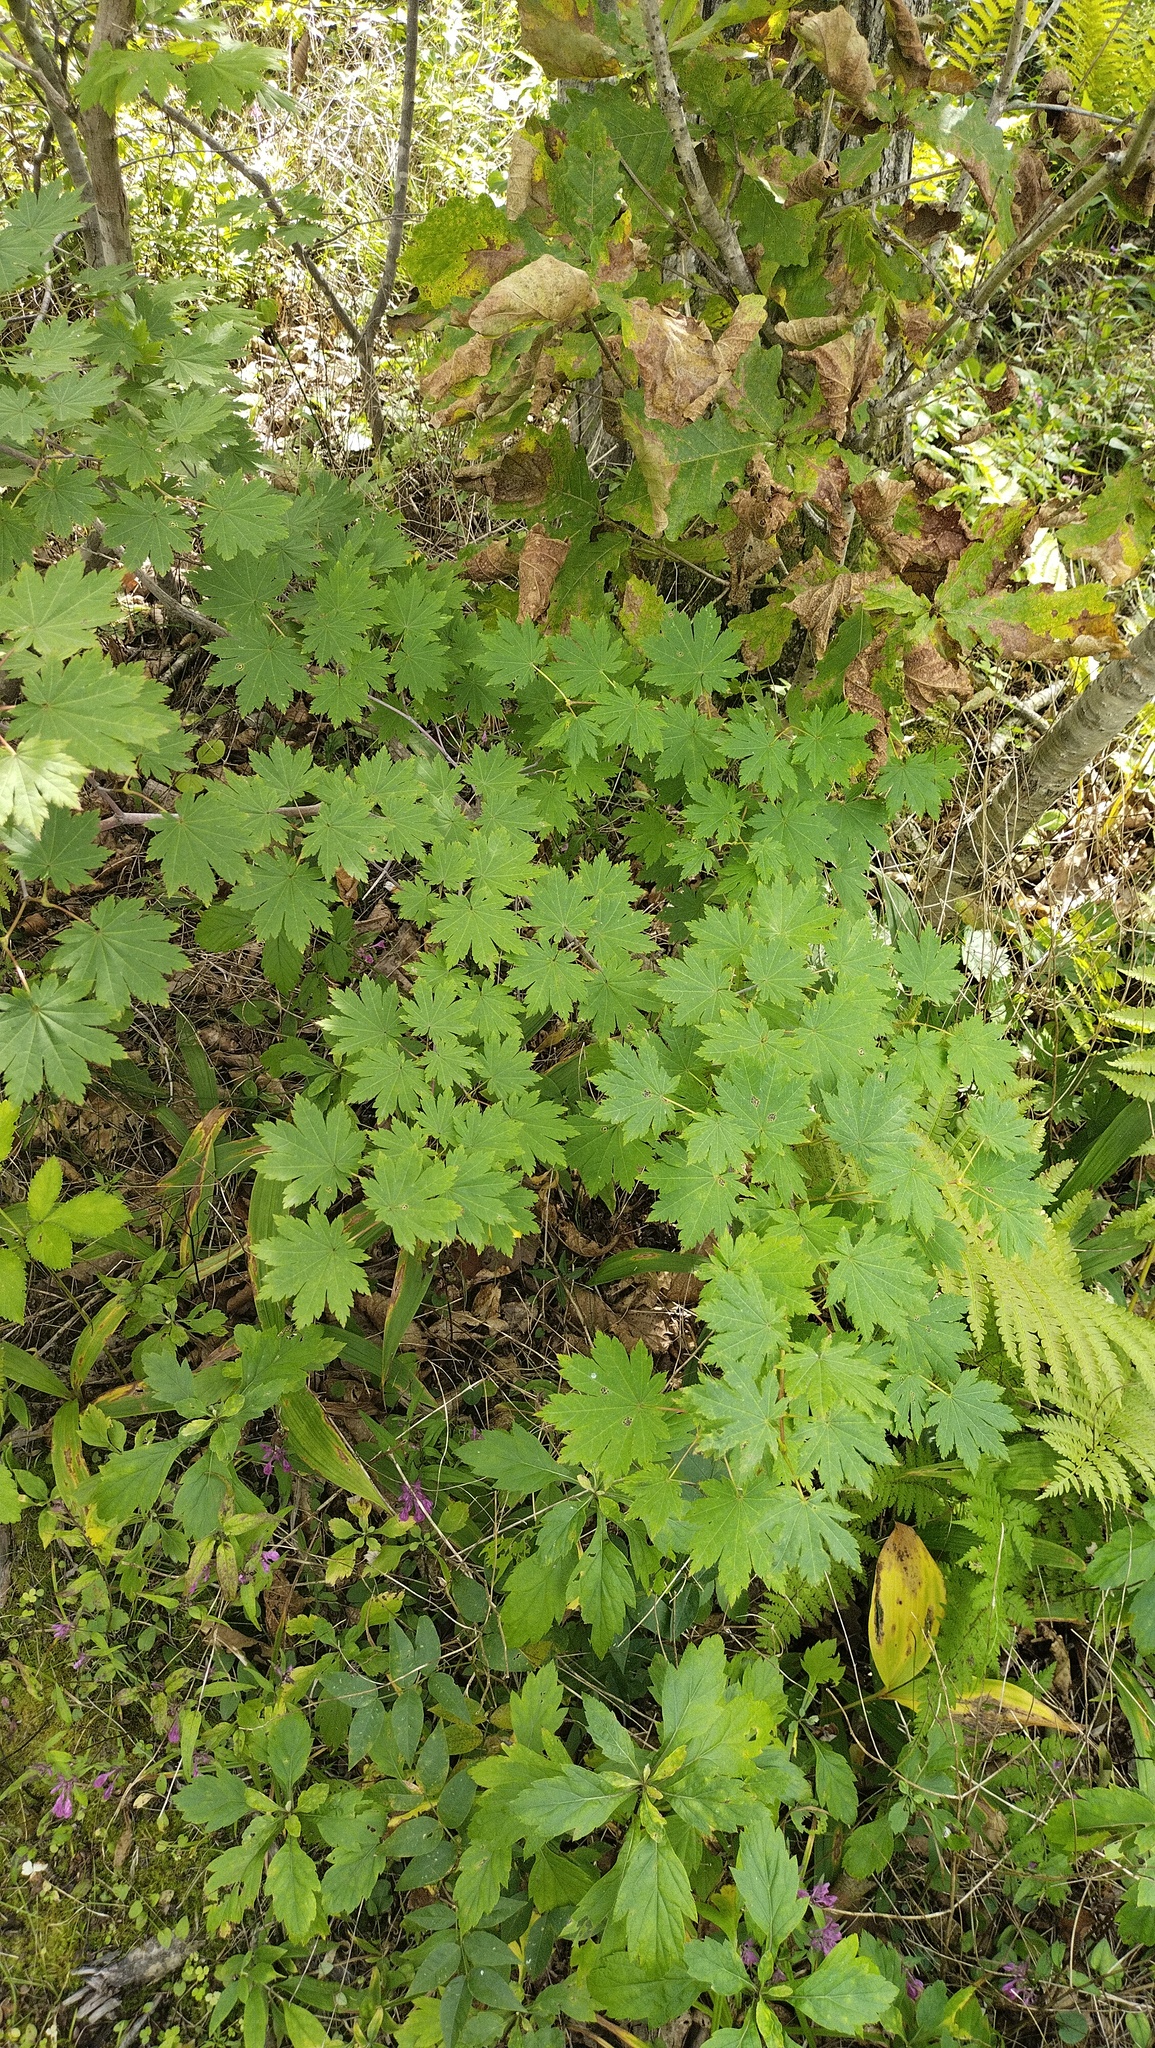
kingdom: Plantae
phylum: Tracheophyta
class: Magnoliopsida
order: Sapindales
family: Sapindaceae
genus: Acer
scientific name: Acer pseudosieboldianum
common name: Korean maple
